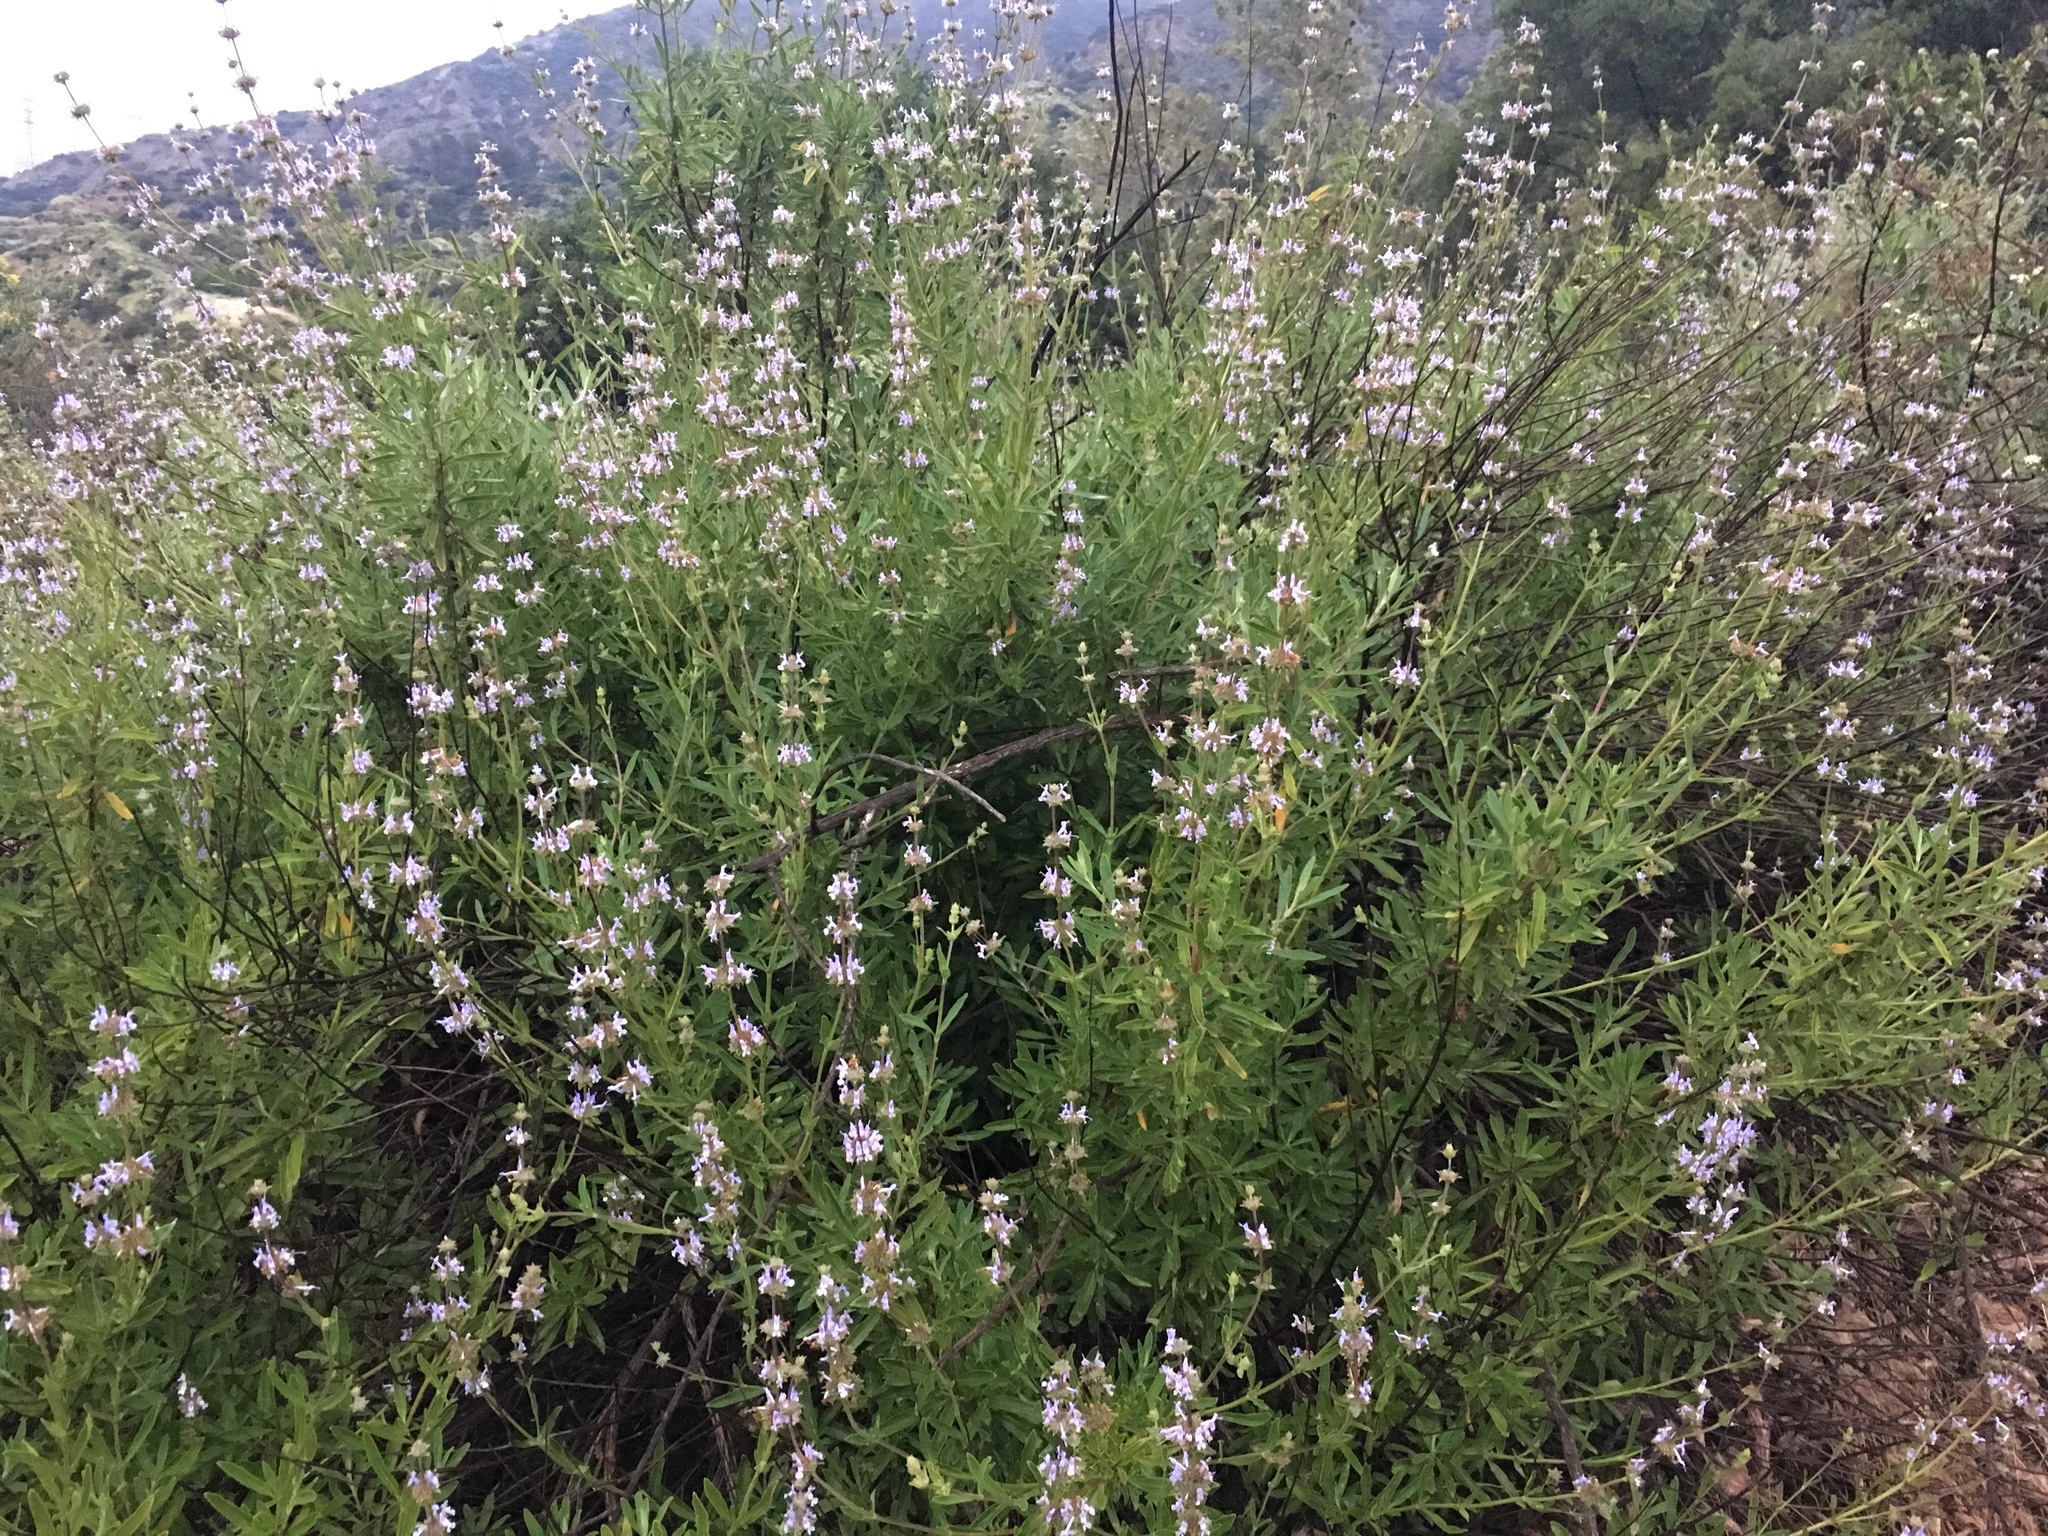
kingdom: Plantae
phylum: Tracheophyta
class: Magnoliopsida
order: Lamiales
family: Lamiaceae
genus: Salvia
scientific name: Salvia mellifera
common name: Black sage
